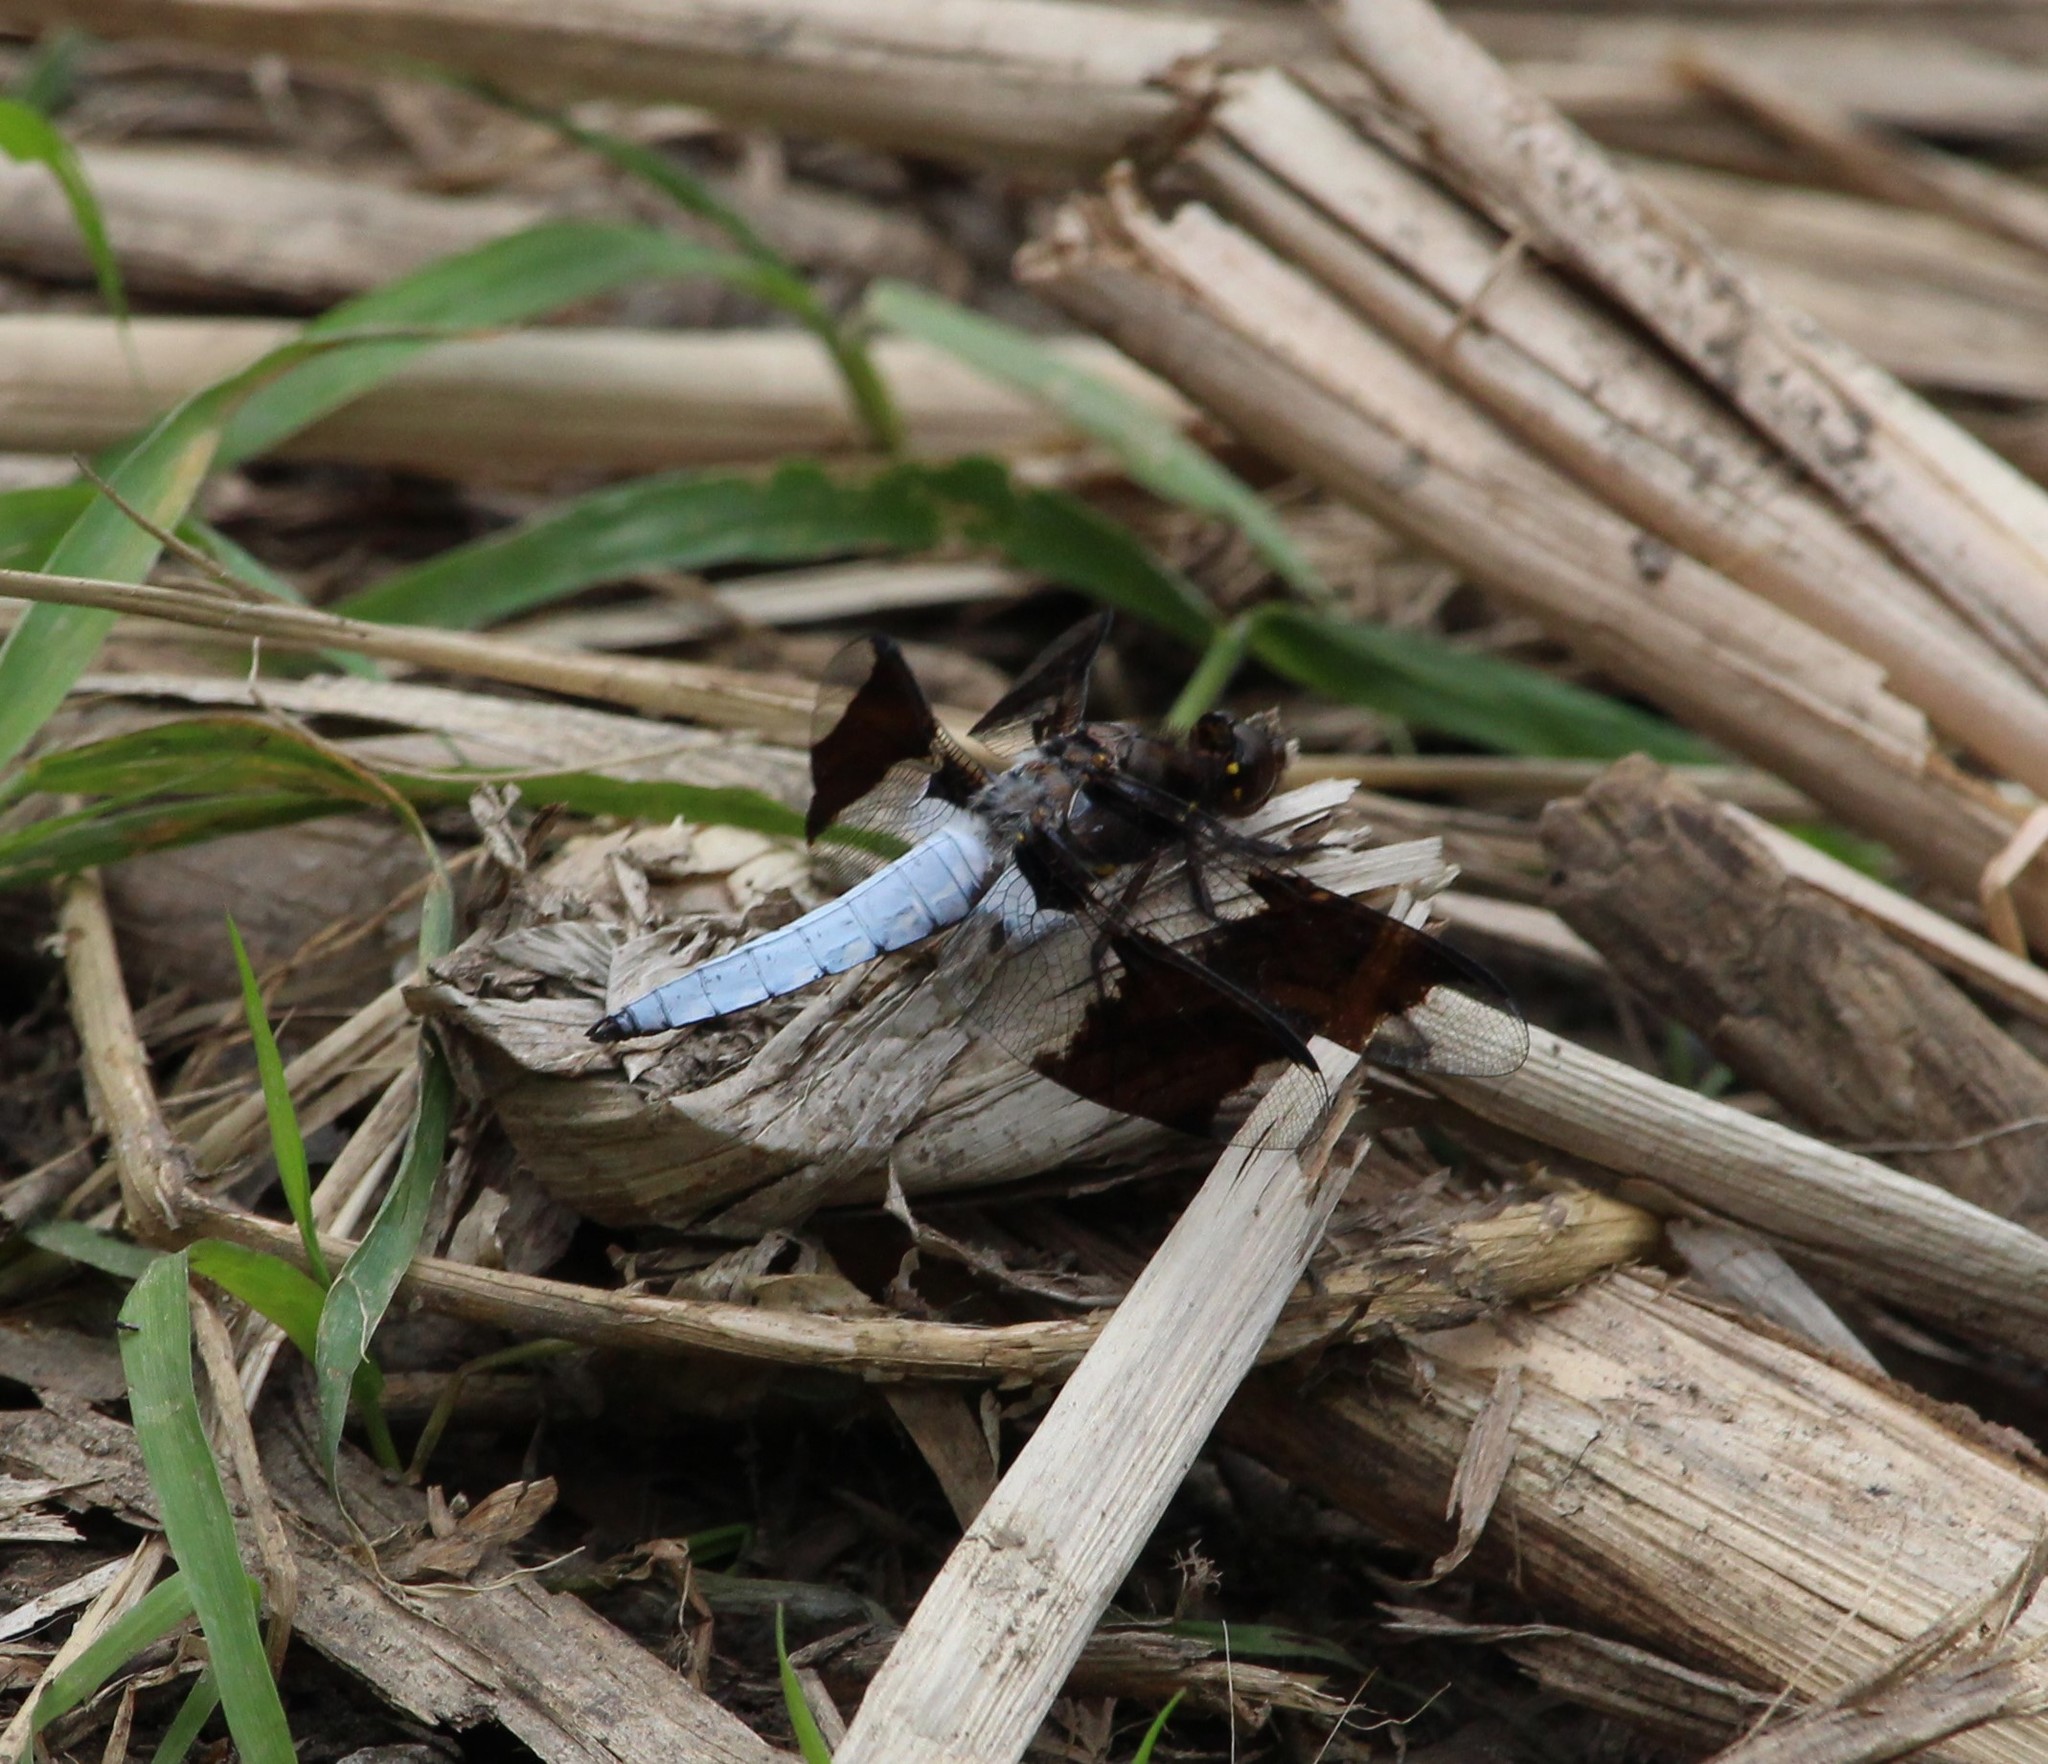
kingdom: Animalia
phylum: Arthropoda
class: Insecta
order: Odonata
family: Libellulidae
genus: Plathemis
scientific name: Plathemis lydia
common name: Common whitetail
